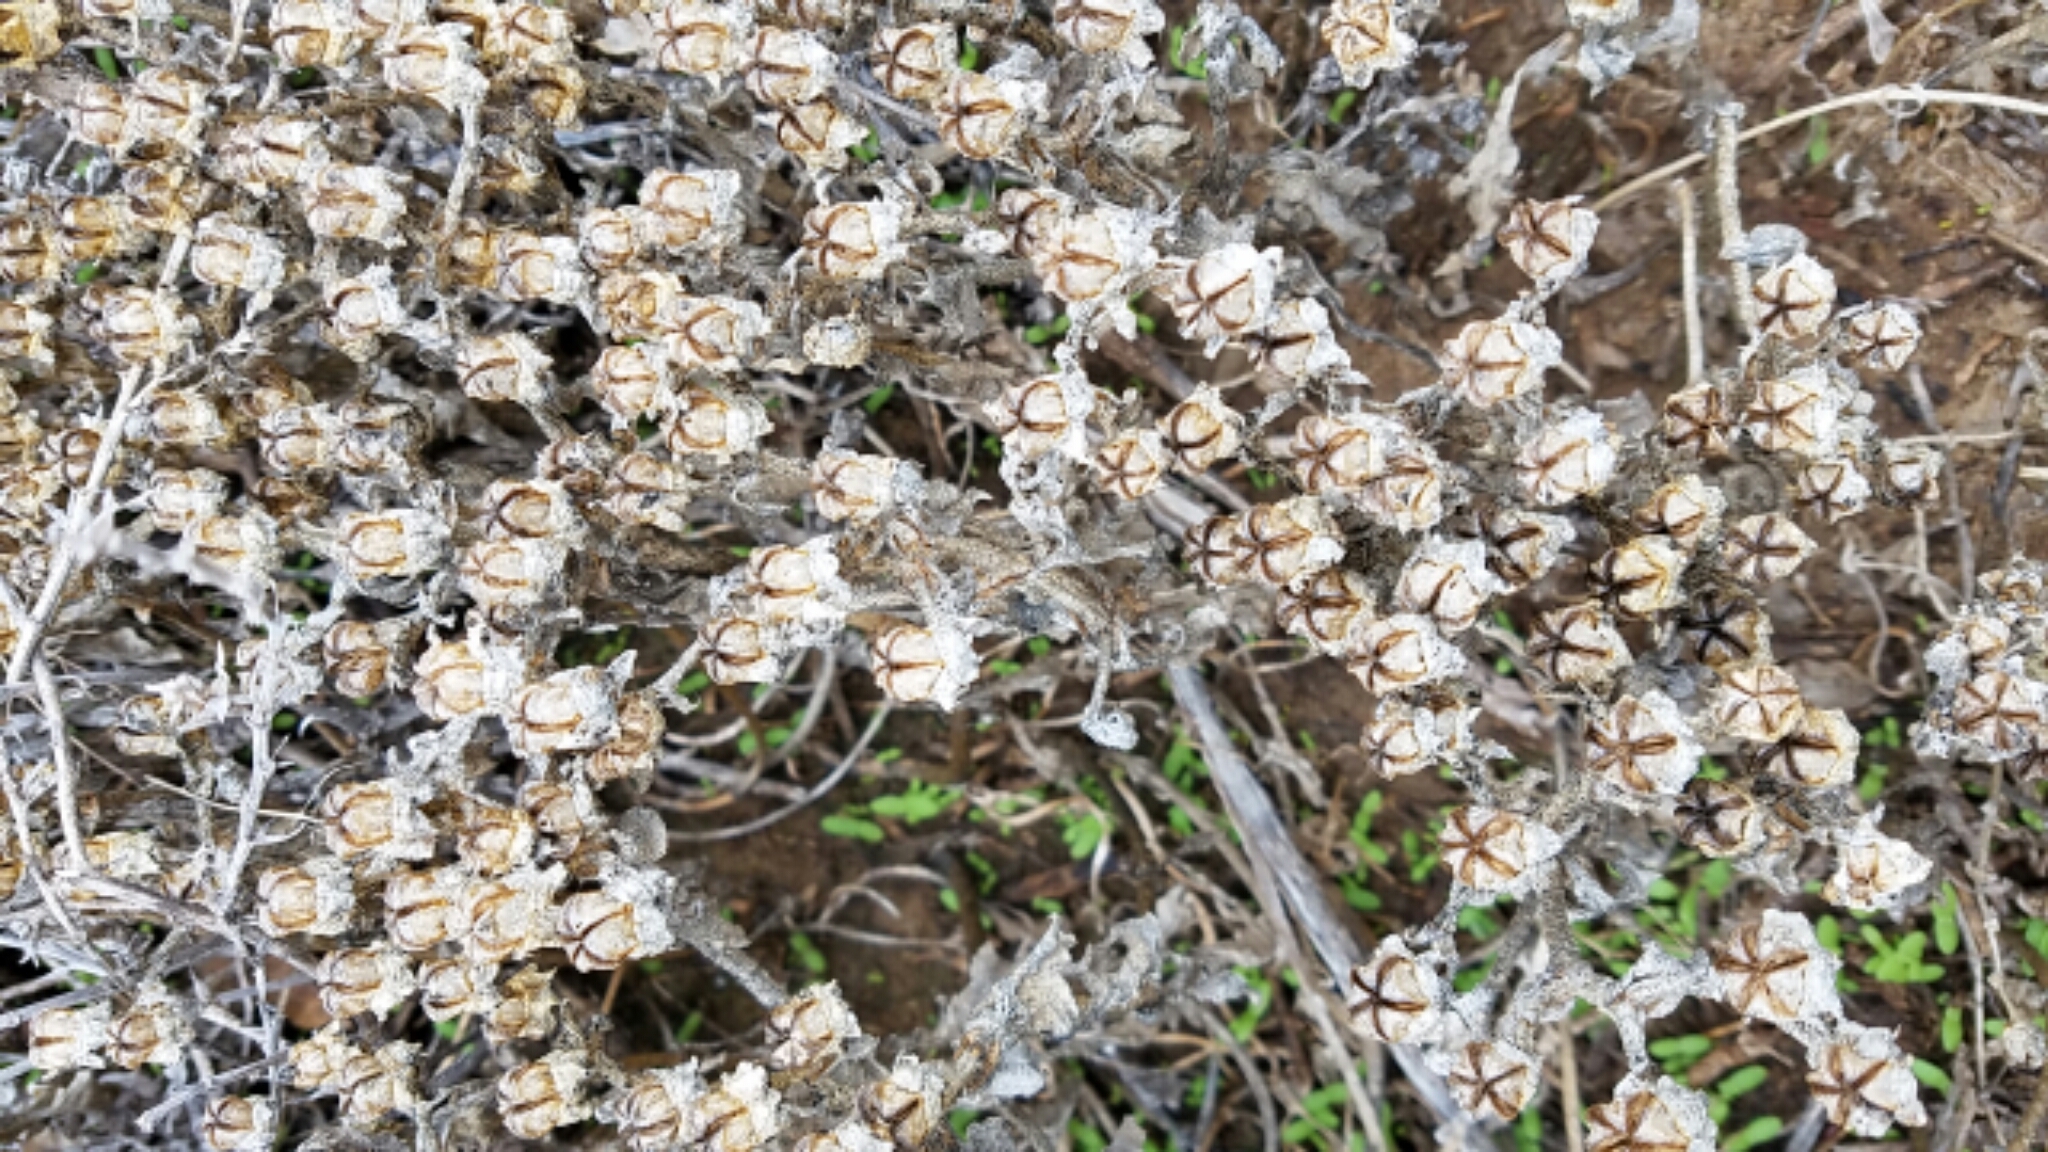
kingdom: Plantae
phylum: Tracheophyta
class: Magnoliopsida
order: Caryophyllales
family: Aizoaceae
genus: Mesembryanthemum
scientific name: Mesembryanthemum crystallinum
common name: Common iceplant
